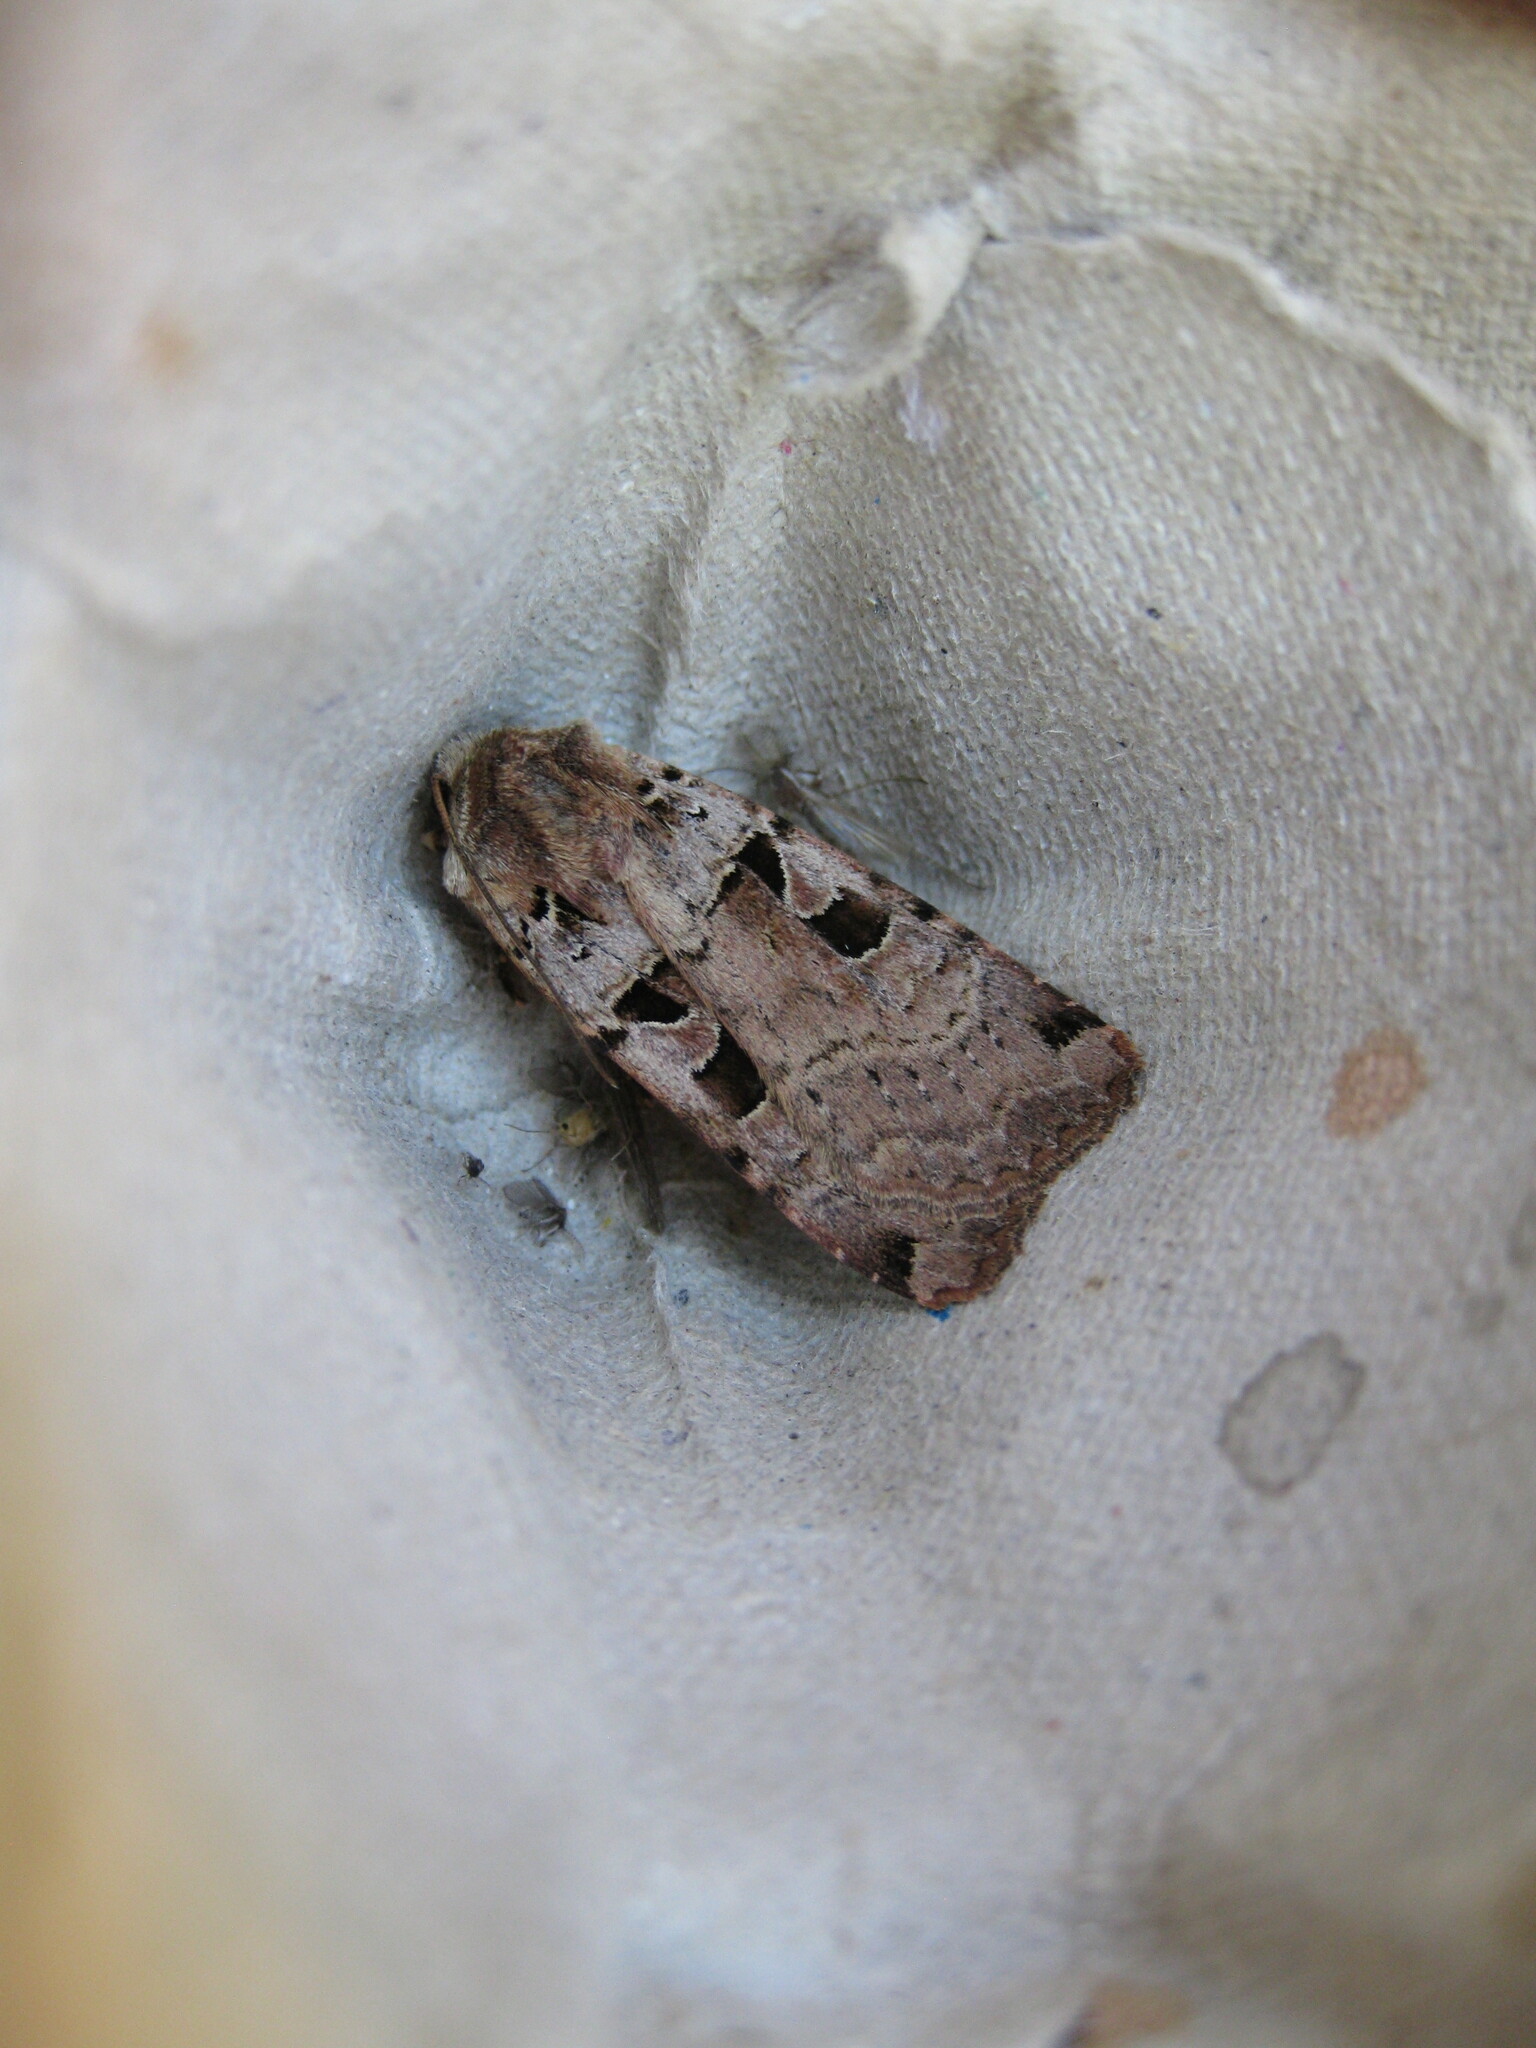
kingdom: Animalia
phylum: Arthropoda
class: Insecta
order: Lepidoptera
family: Noctuidae
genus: Xestia
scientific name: Xestia triangulum
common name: Double square-spot
